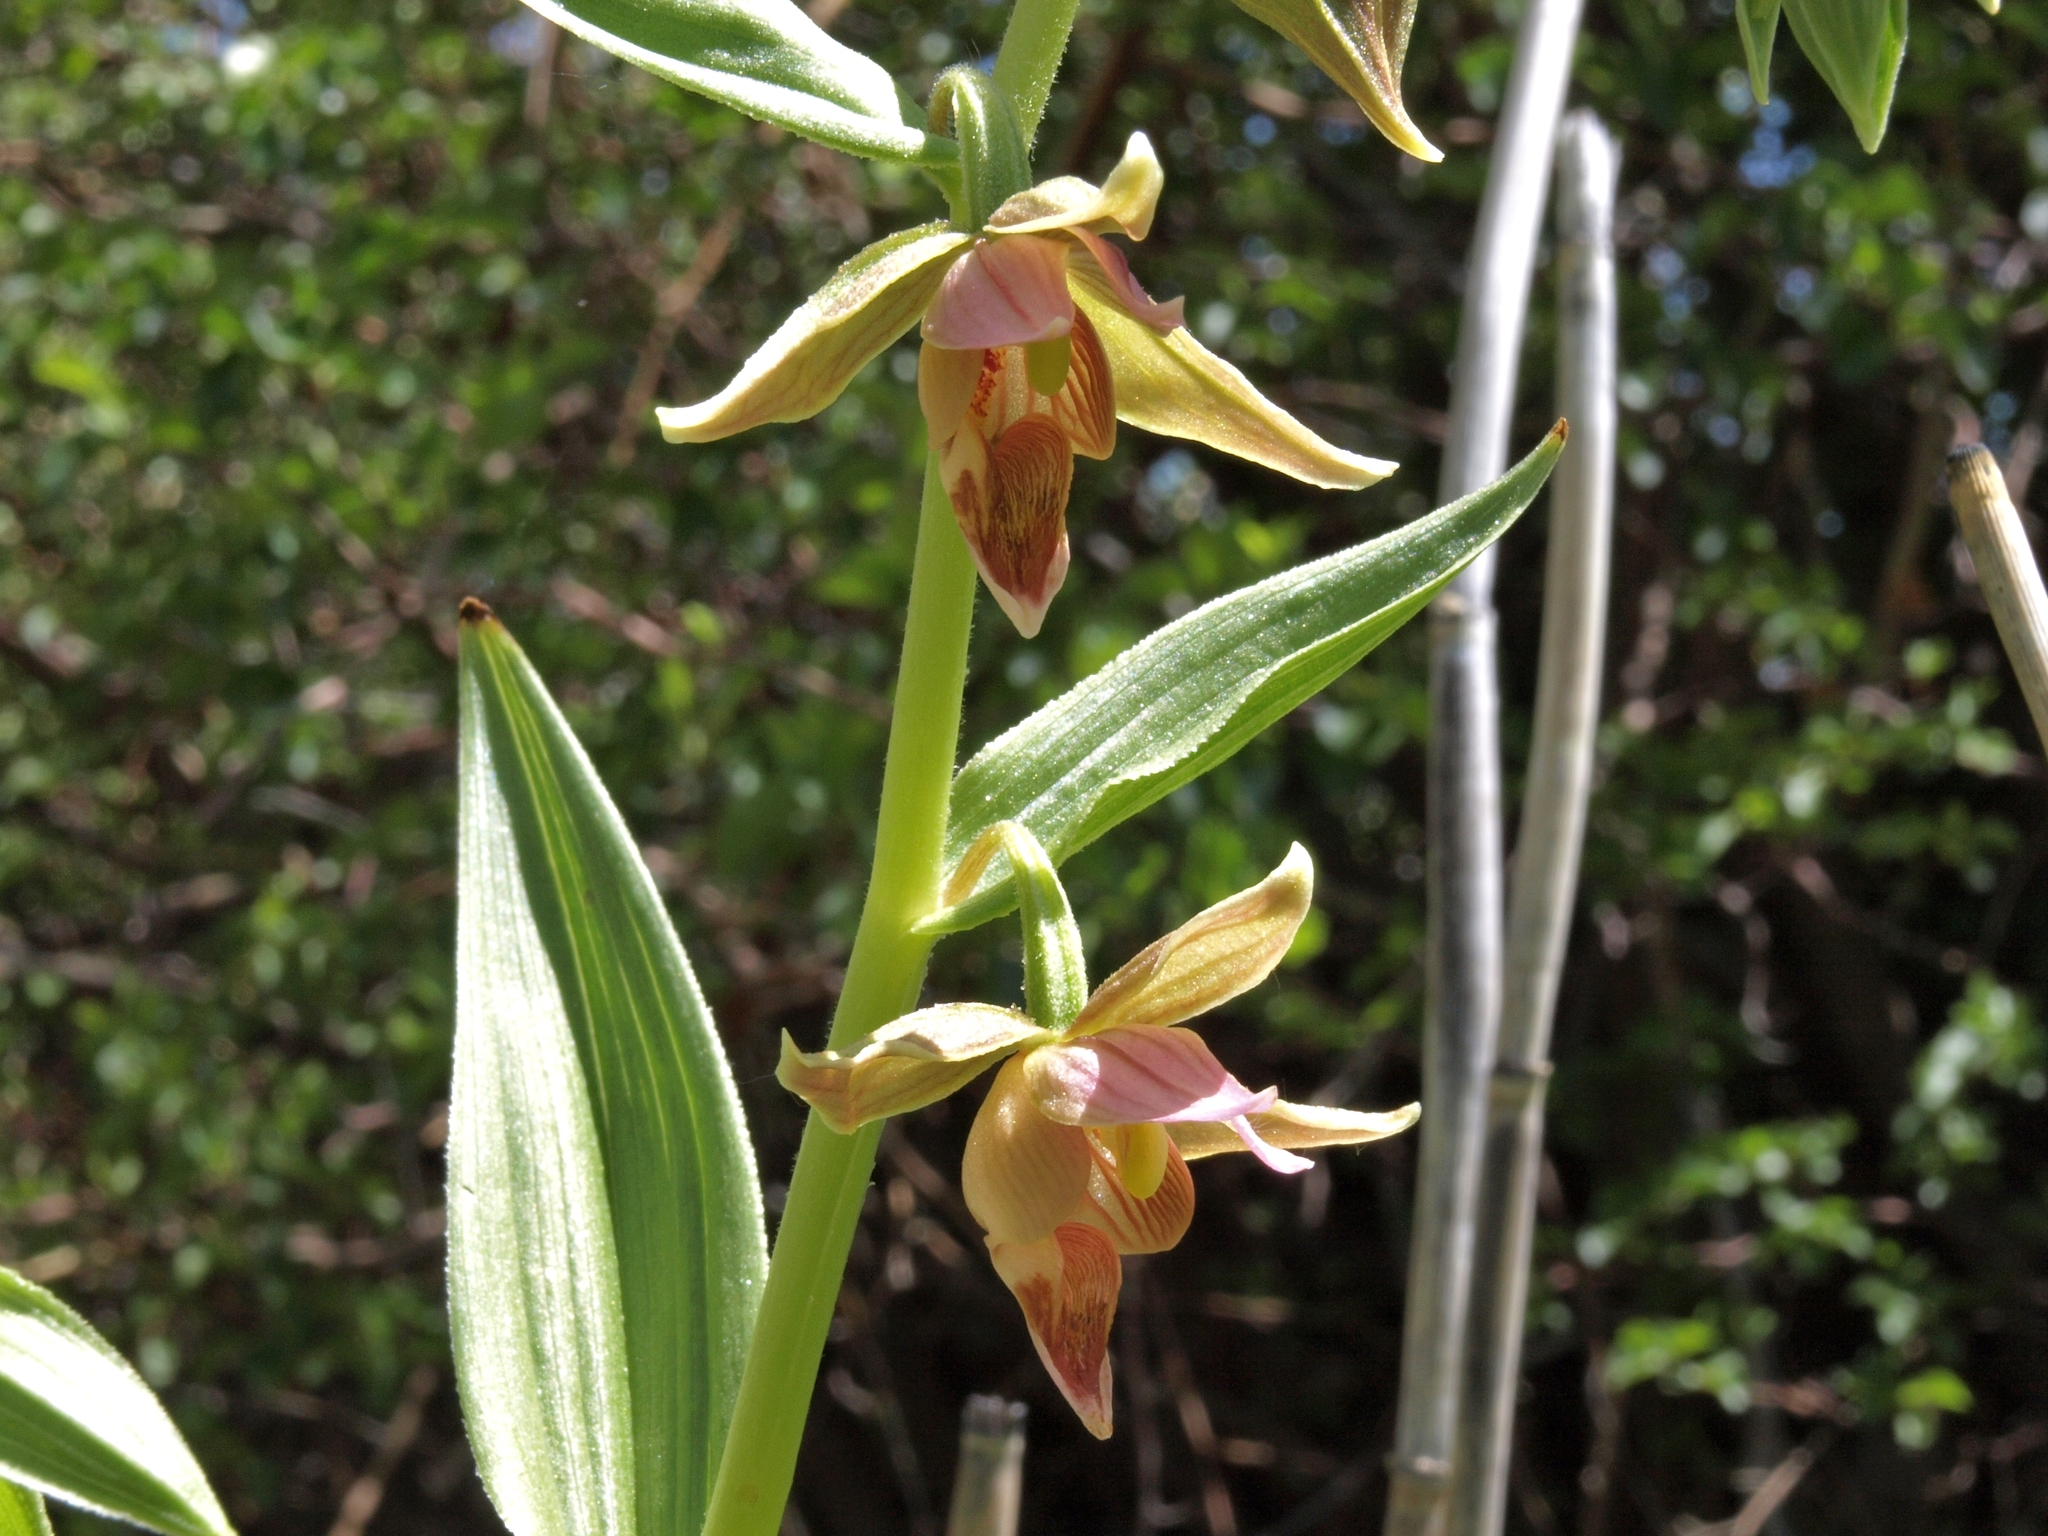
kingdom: Plantae
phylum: Tracheophyta
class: Liliopsida
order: Asparagales
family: Orchidaceae
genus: Epipactis
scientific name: Epipactis gigantea
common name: Chatterbox
